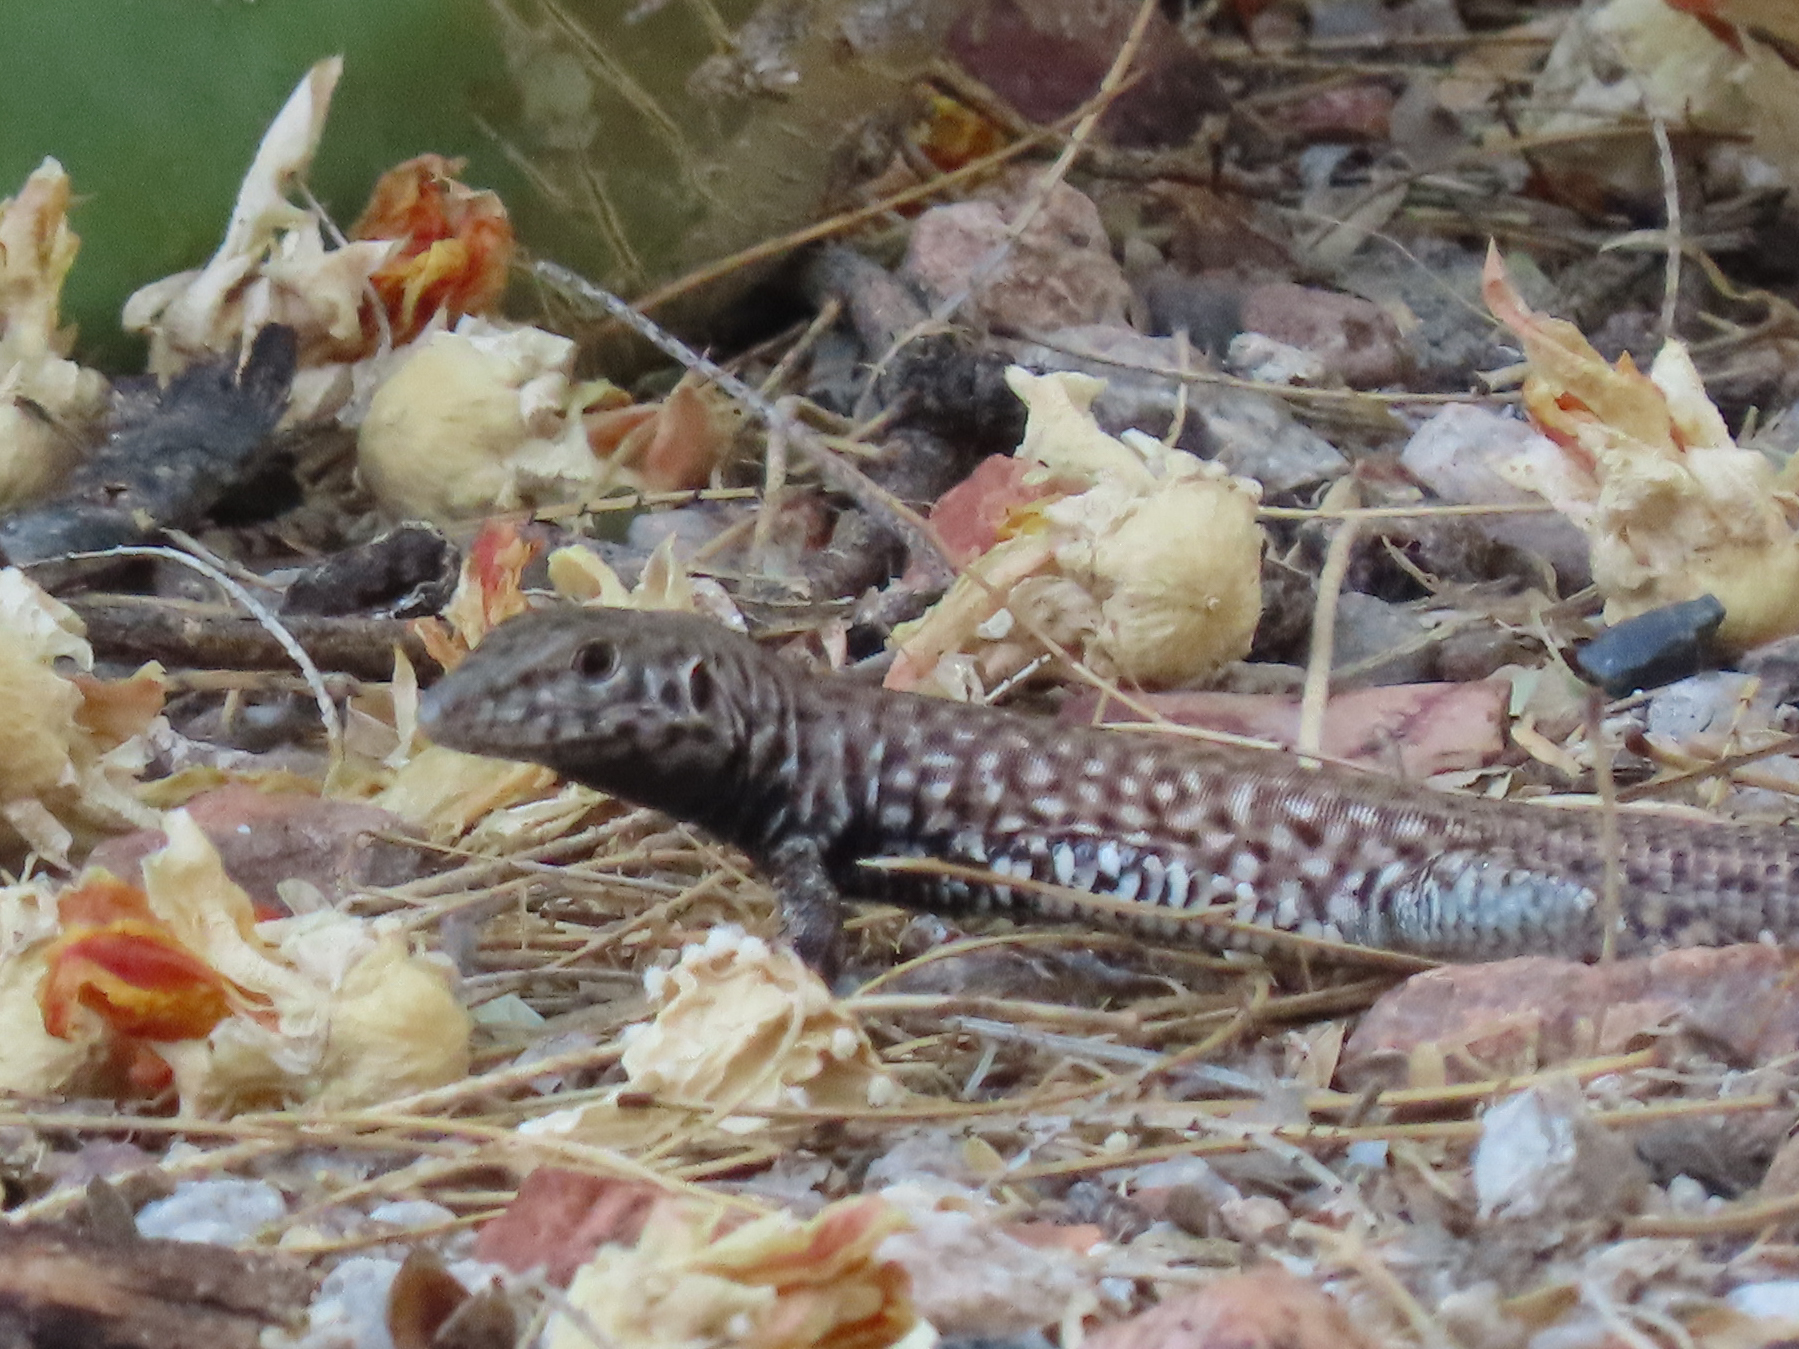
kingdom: Animalia
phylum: Chordata
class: Squamata
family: Teiidae
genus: Aspidoscelis
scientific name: Aspidoscelis tigris
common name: Tiger whiptail
